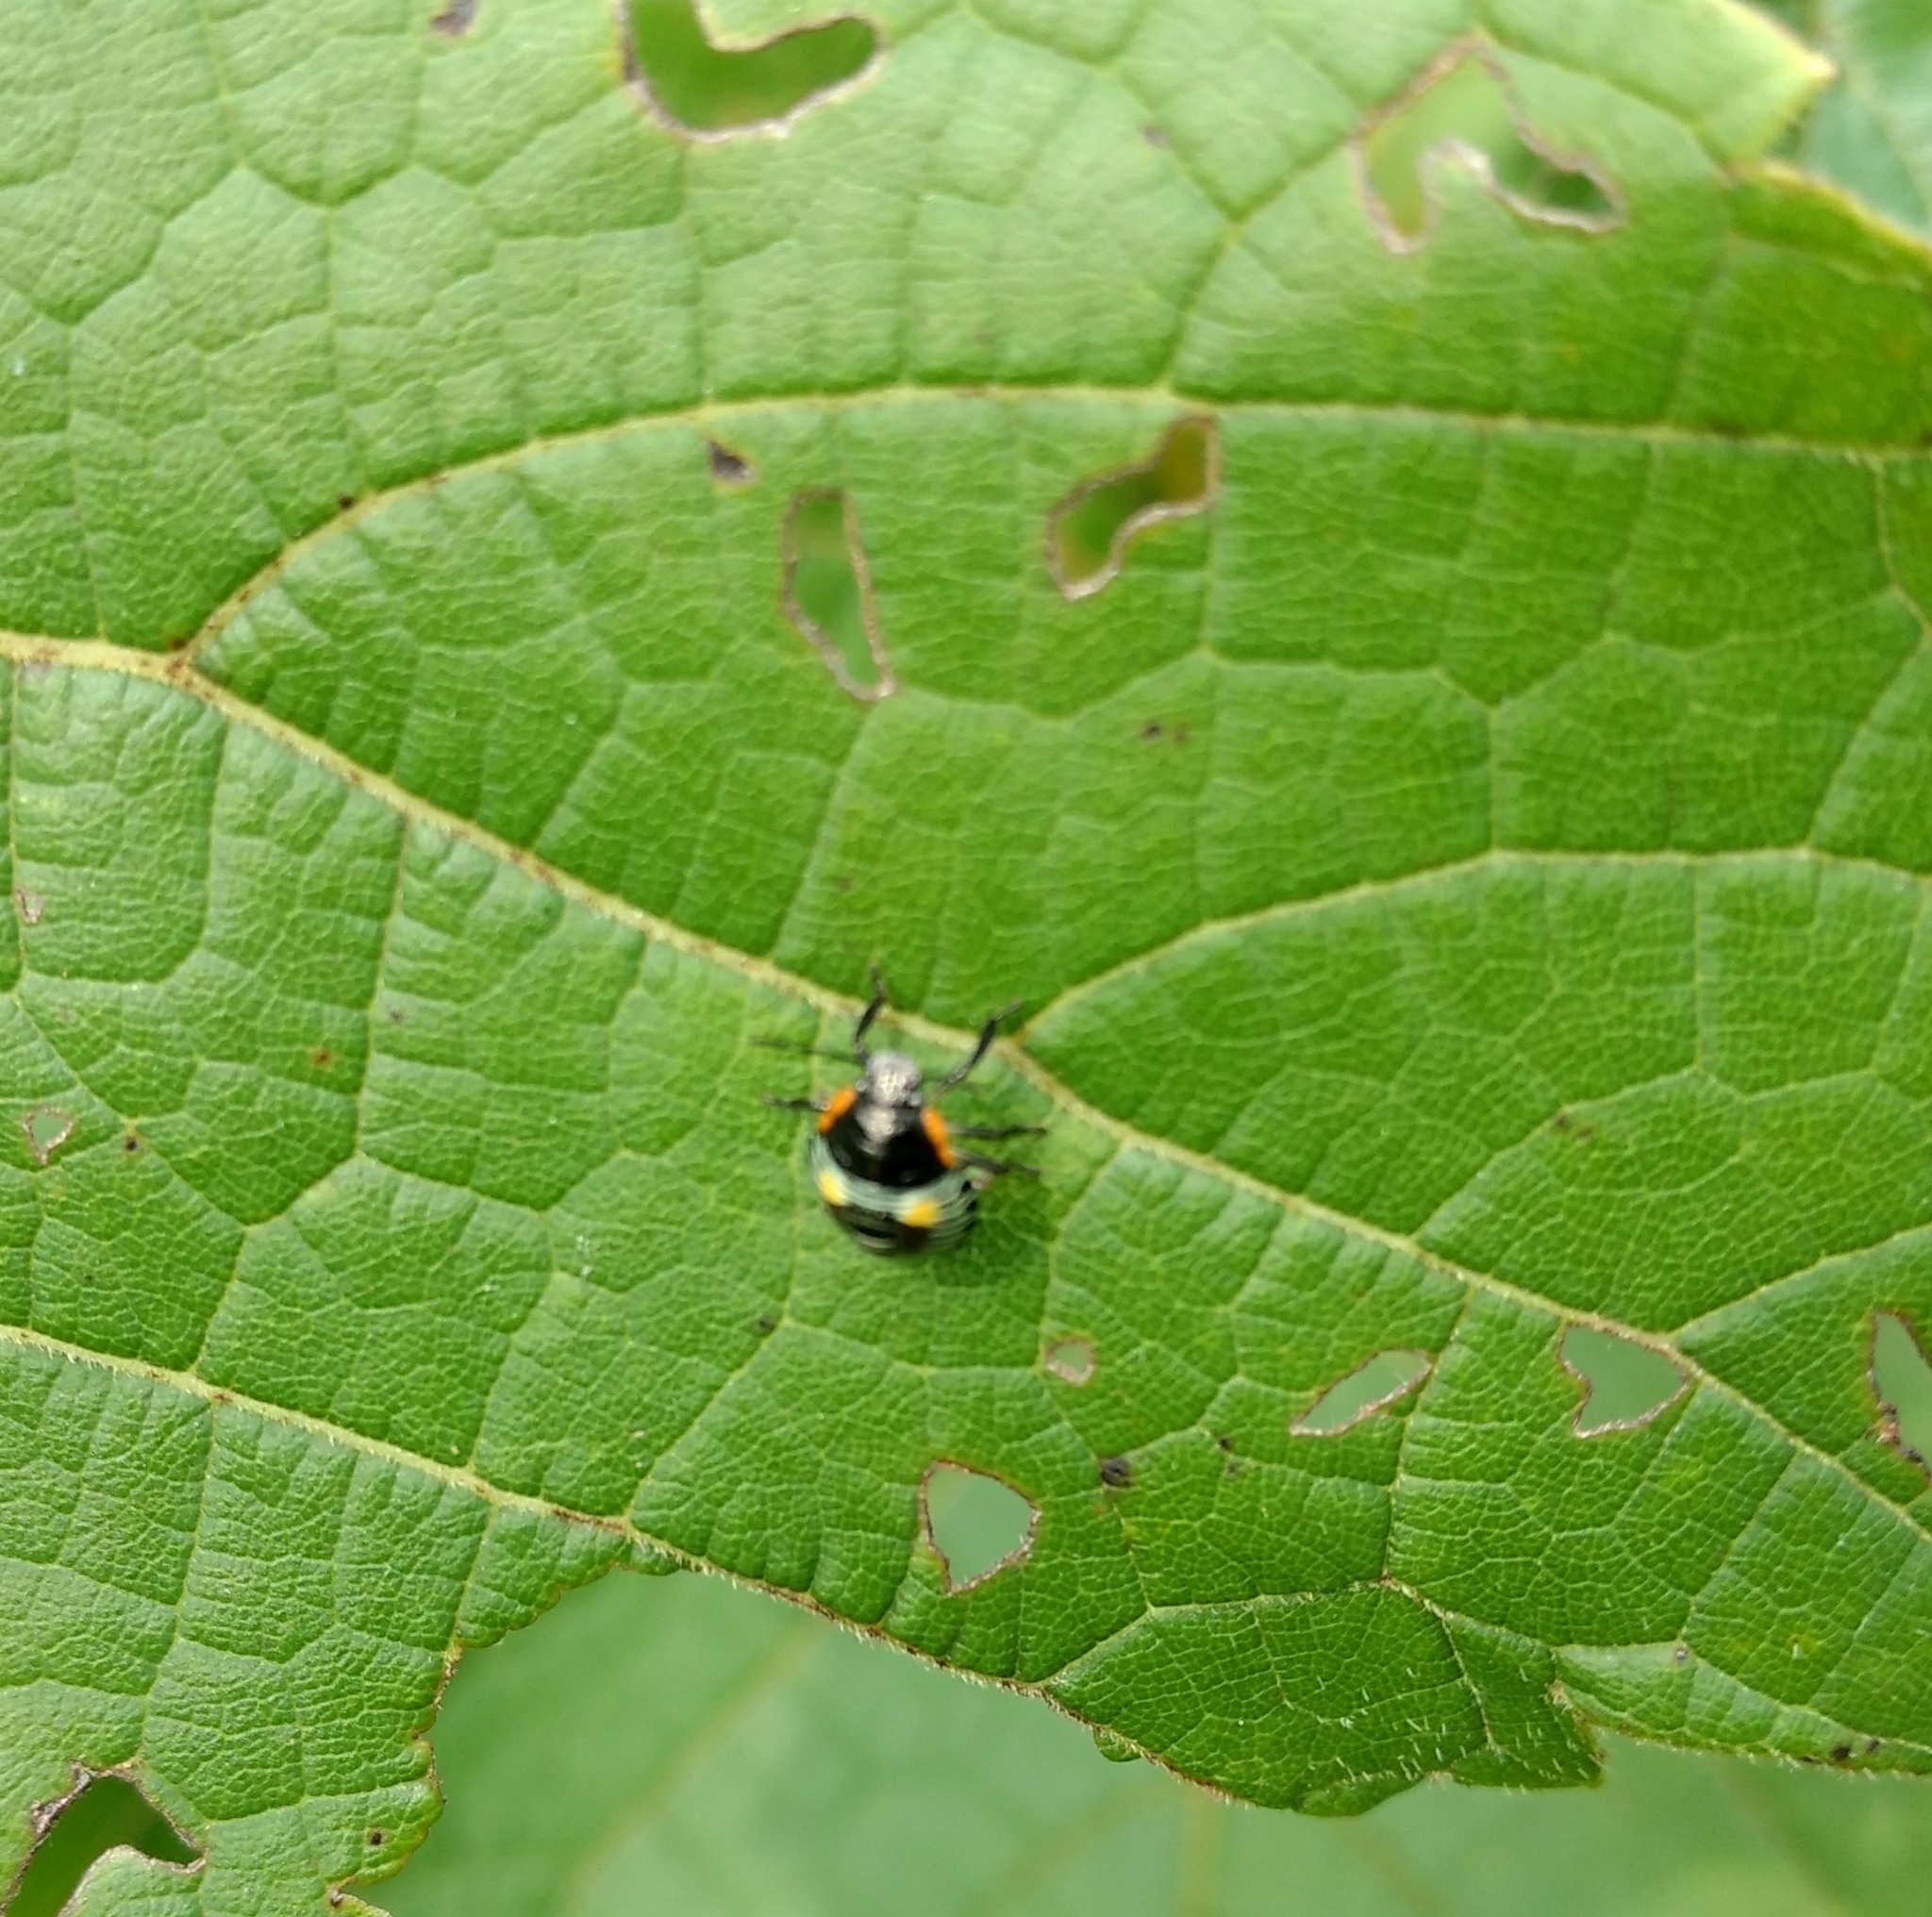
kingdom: Animalia
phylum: Arthropoda
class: Insecta
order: Hemiptera
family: Pentatomidae
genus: Chinavia
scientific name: Chinavia hilaris
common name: Green stink bug
